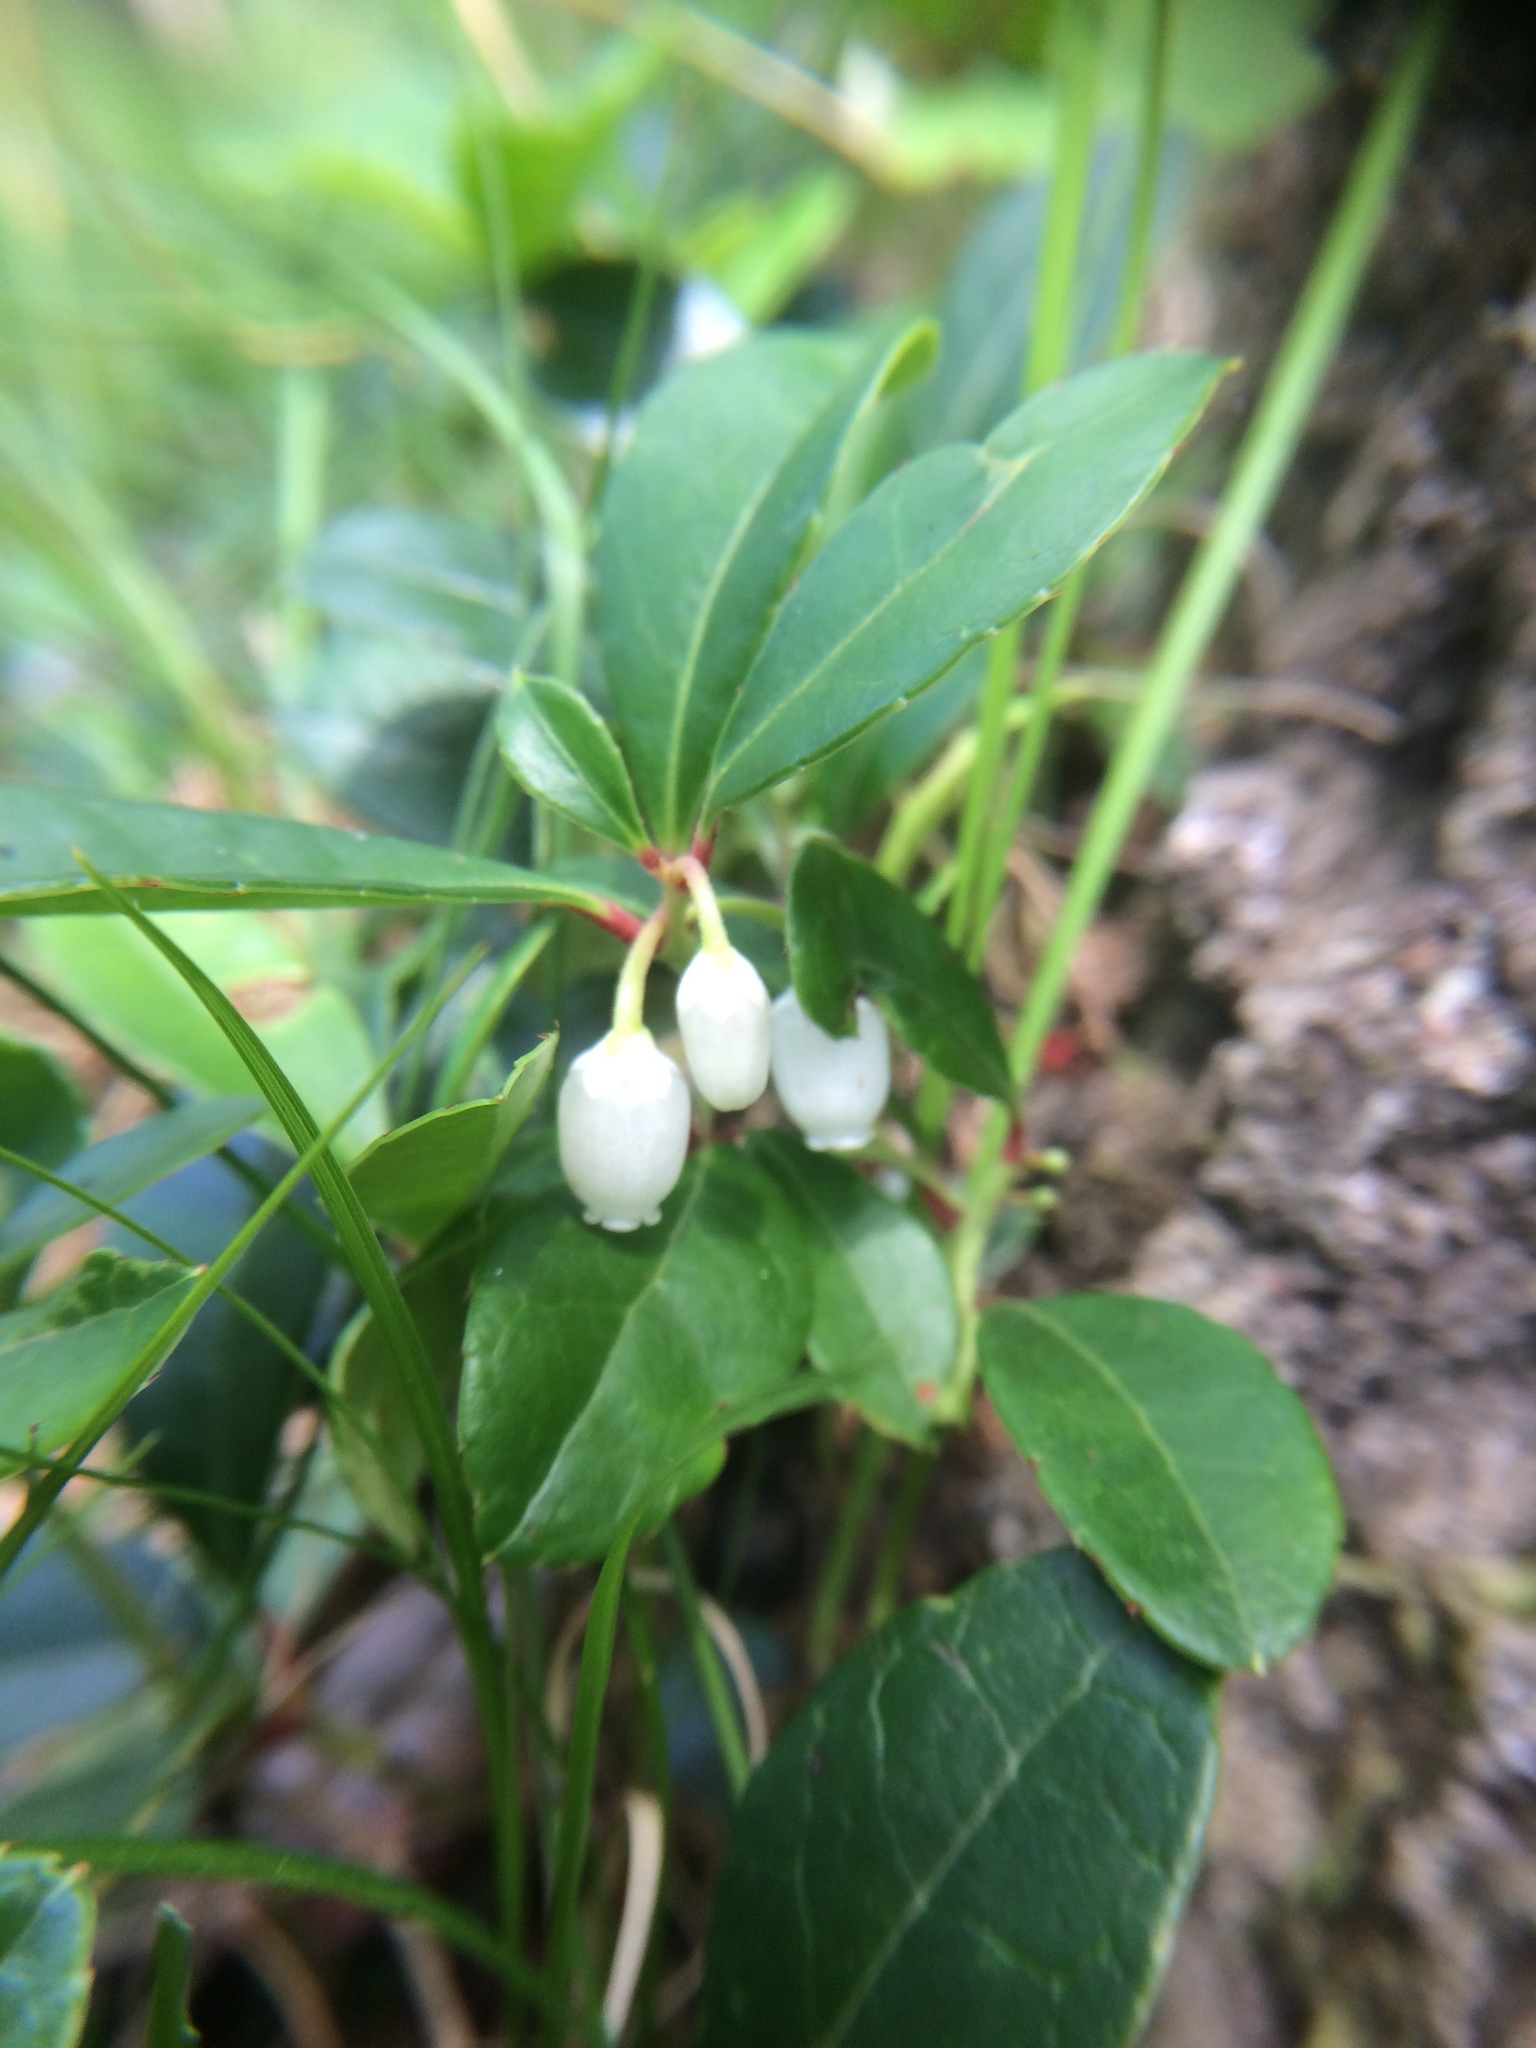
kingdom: Plantae
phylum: Tracheophyta
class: Magnoliopsida
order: Ericales
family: Ericaceae
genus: Gaultheria
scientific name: Gaultheria procumbens
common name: Checkerberry
